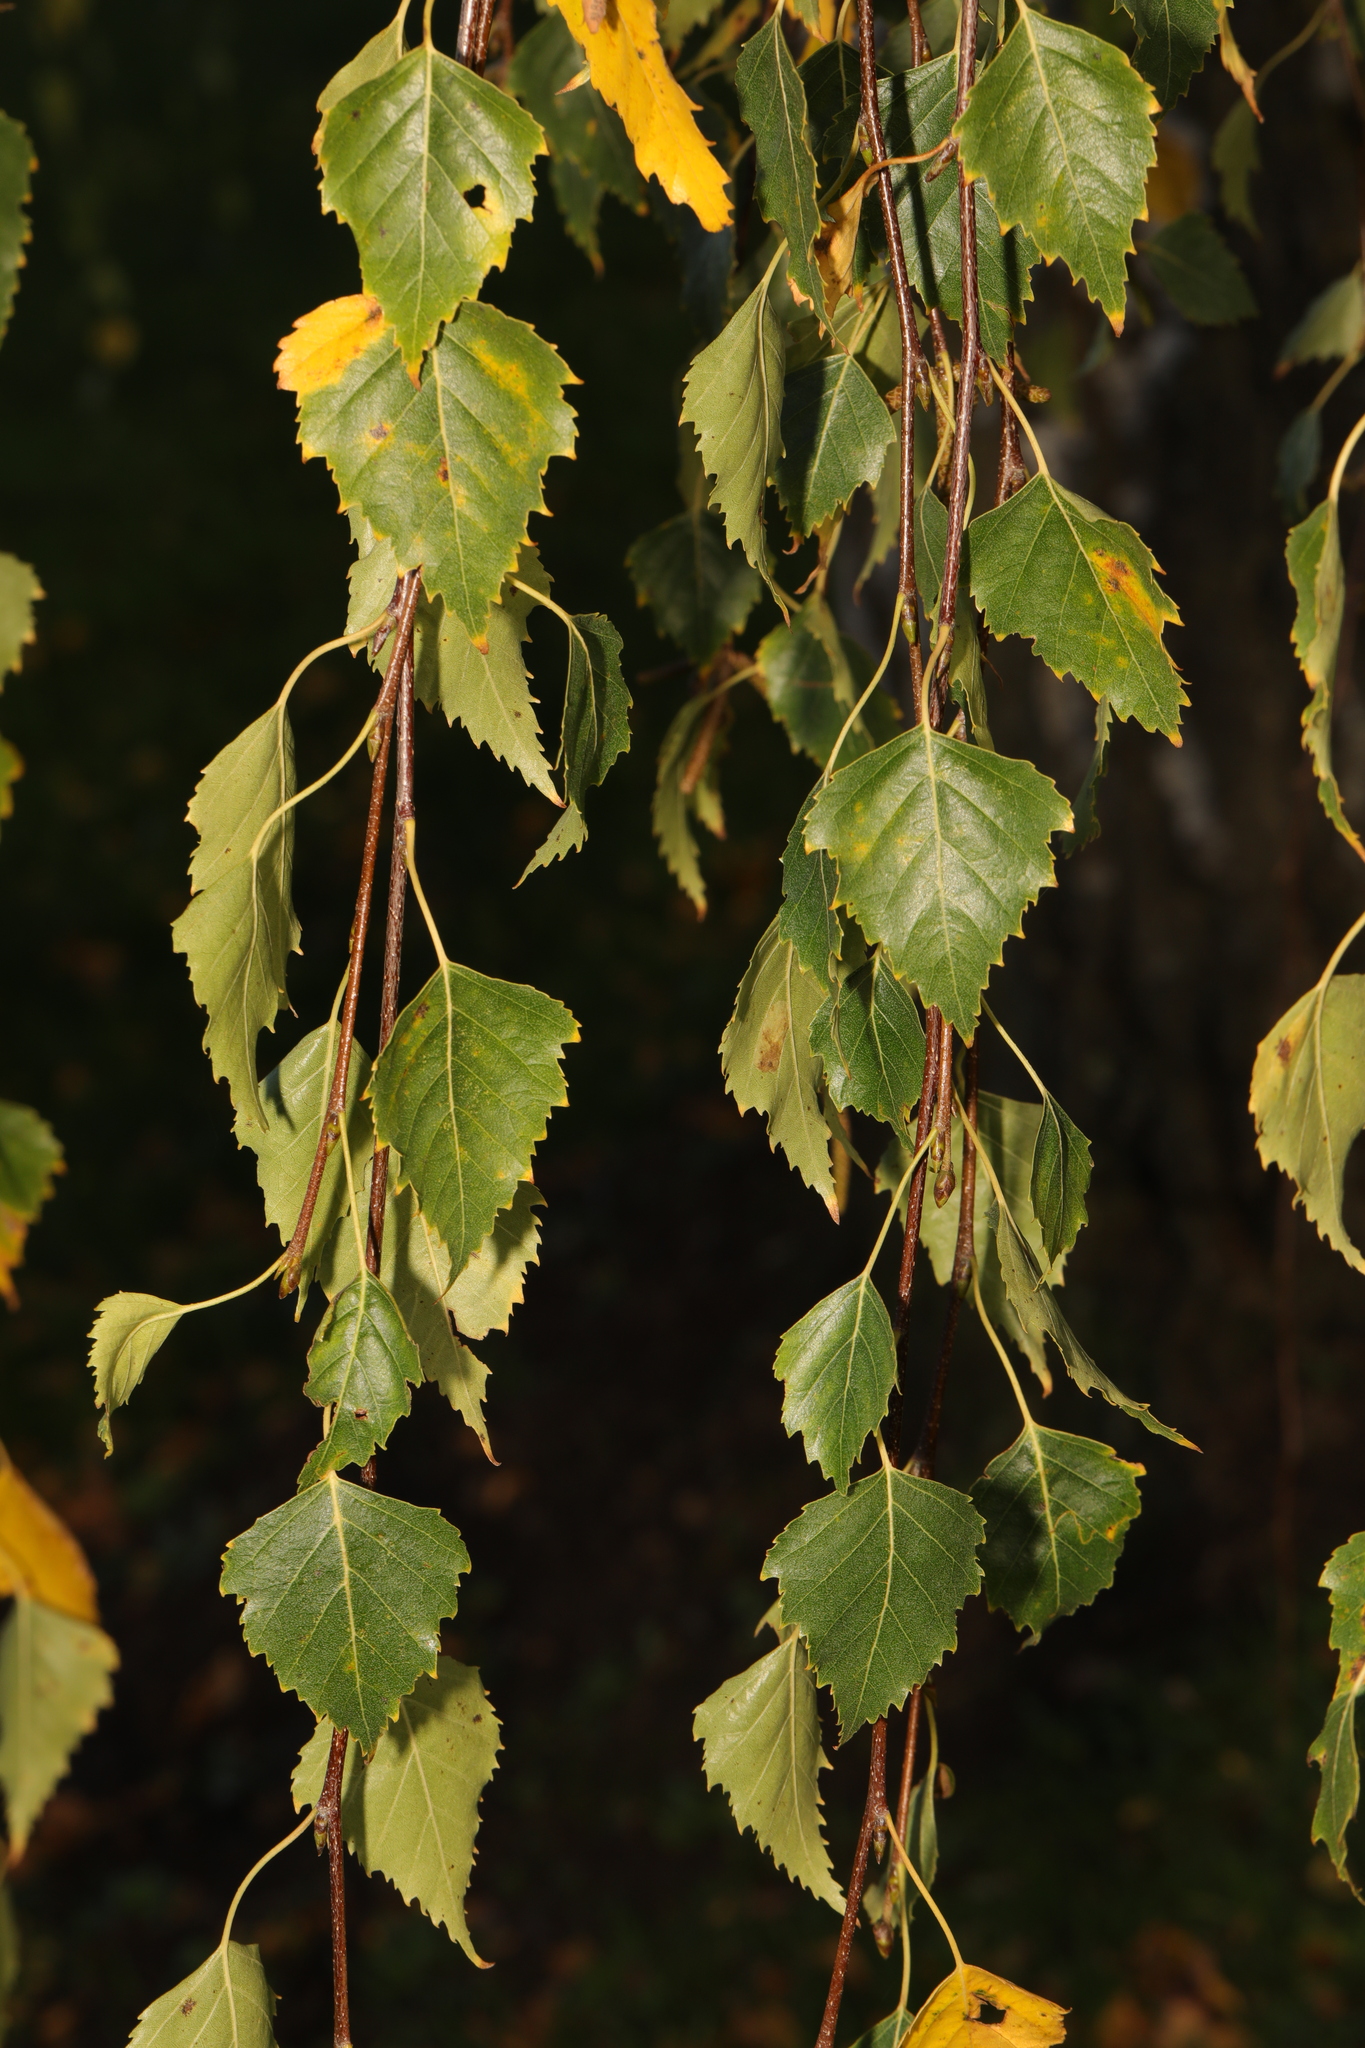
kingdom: Plantae
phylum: Tracheophyta
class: Magnoliopsida
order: Fagales
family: Betulaceae
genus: Betula
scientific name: Betula pendula
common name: Silver birch
